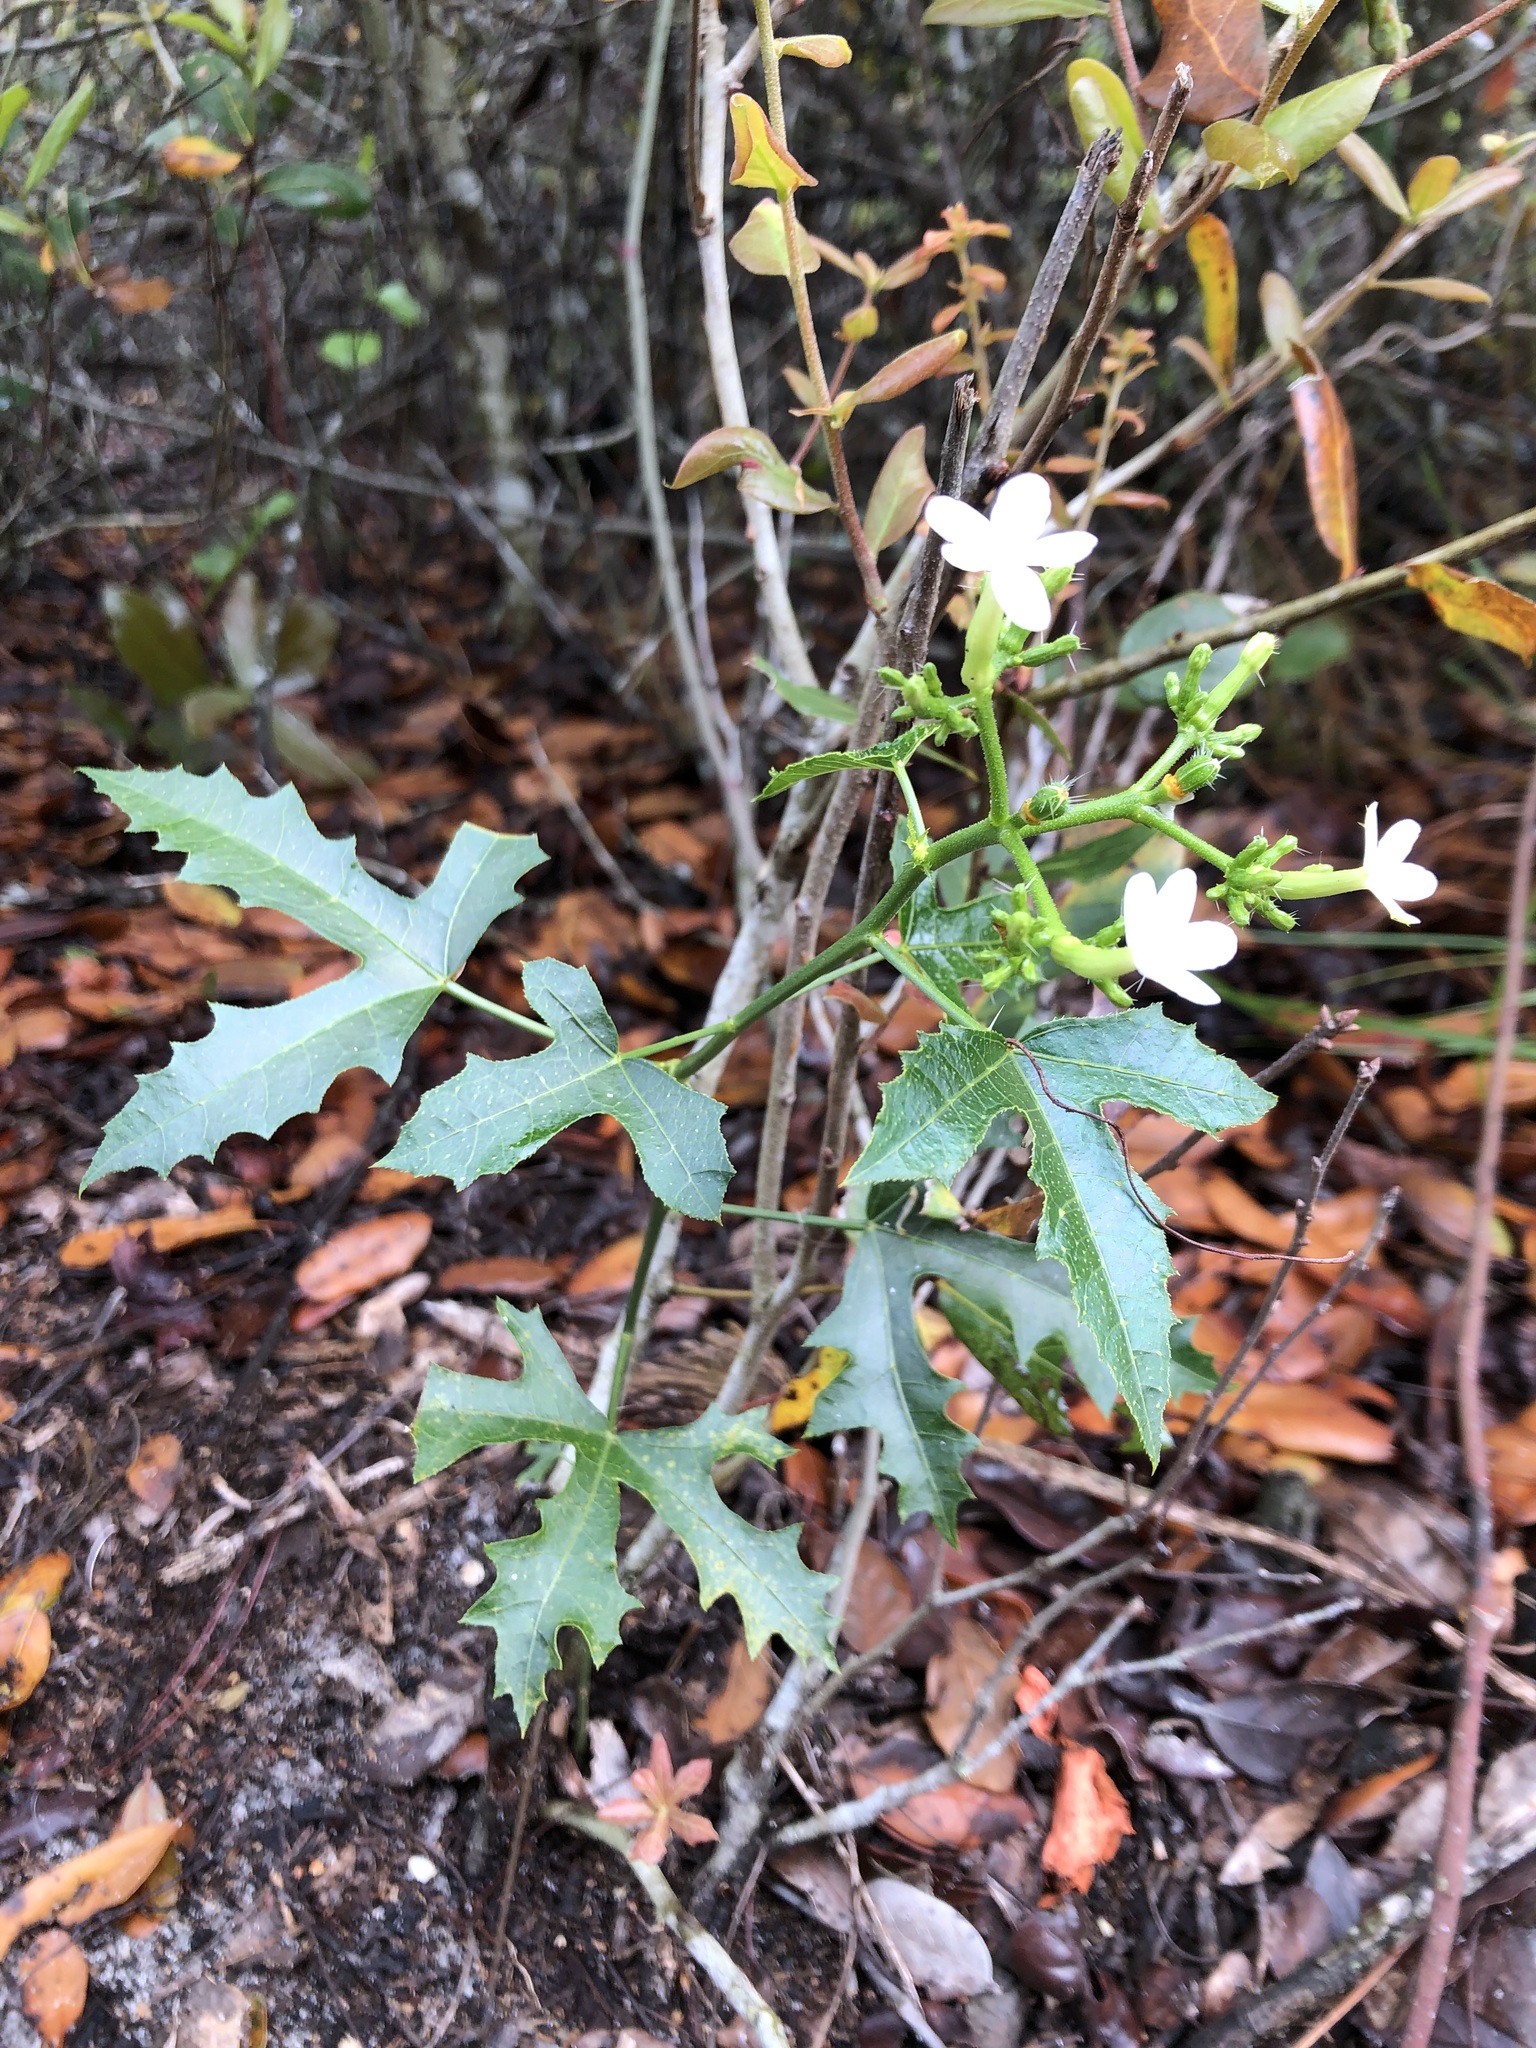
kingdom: Plantae
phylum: Tracheophyta
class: Magnoliopsida
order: Malpighiales
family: Euphorbiaceae
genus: Cnidoscolus
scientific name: Cnidoscolus stimulosus
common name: Bull-nettle
